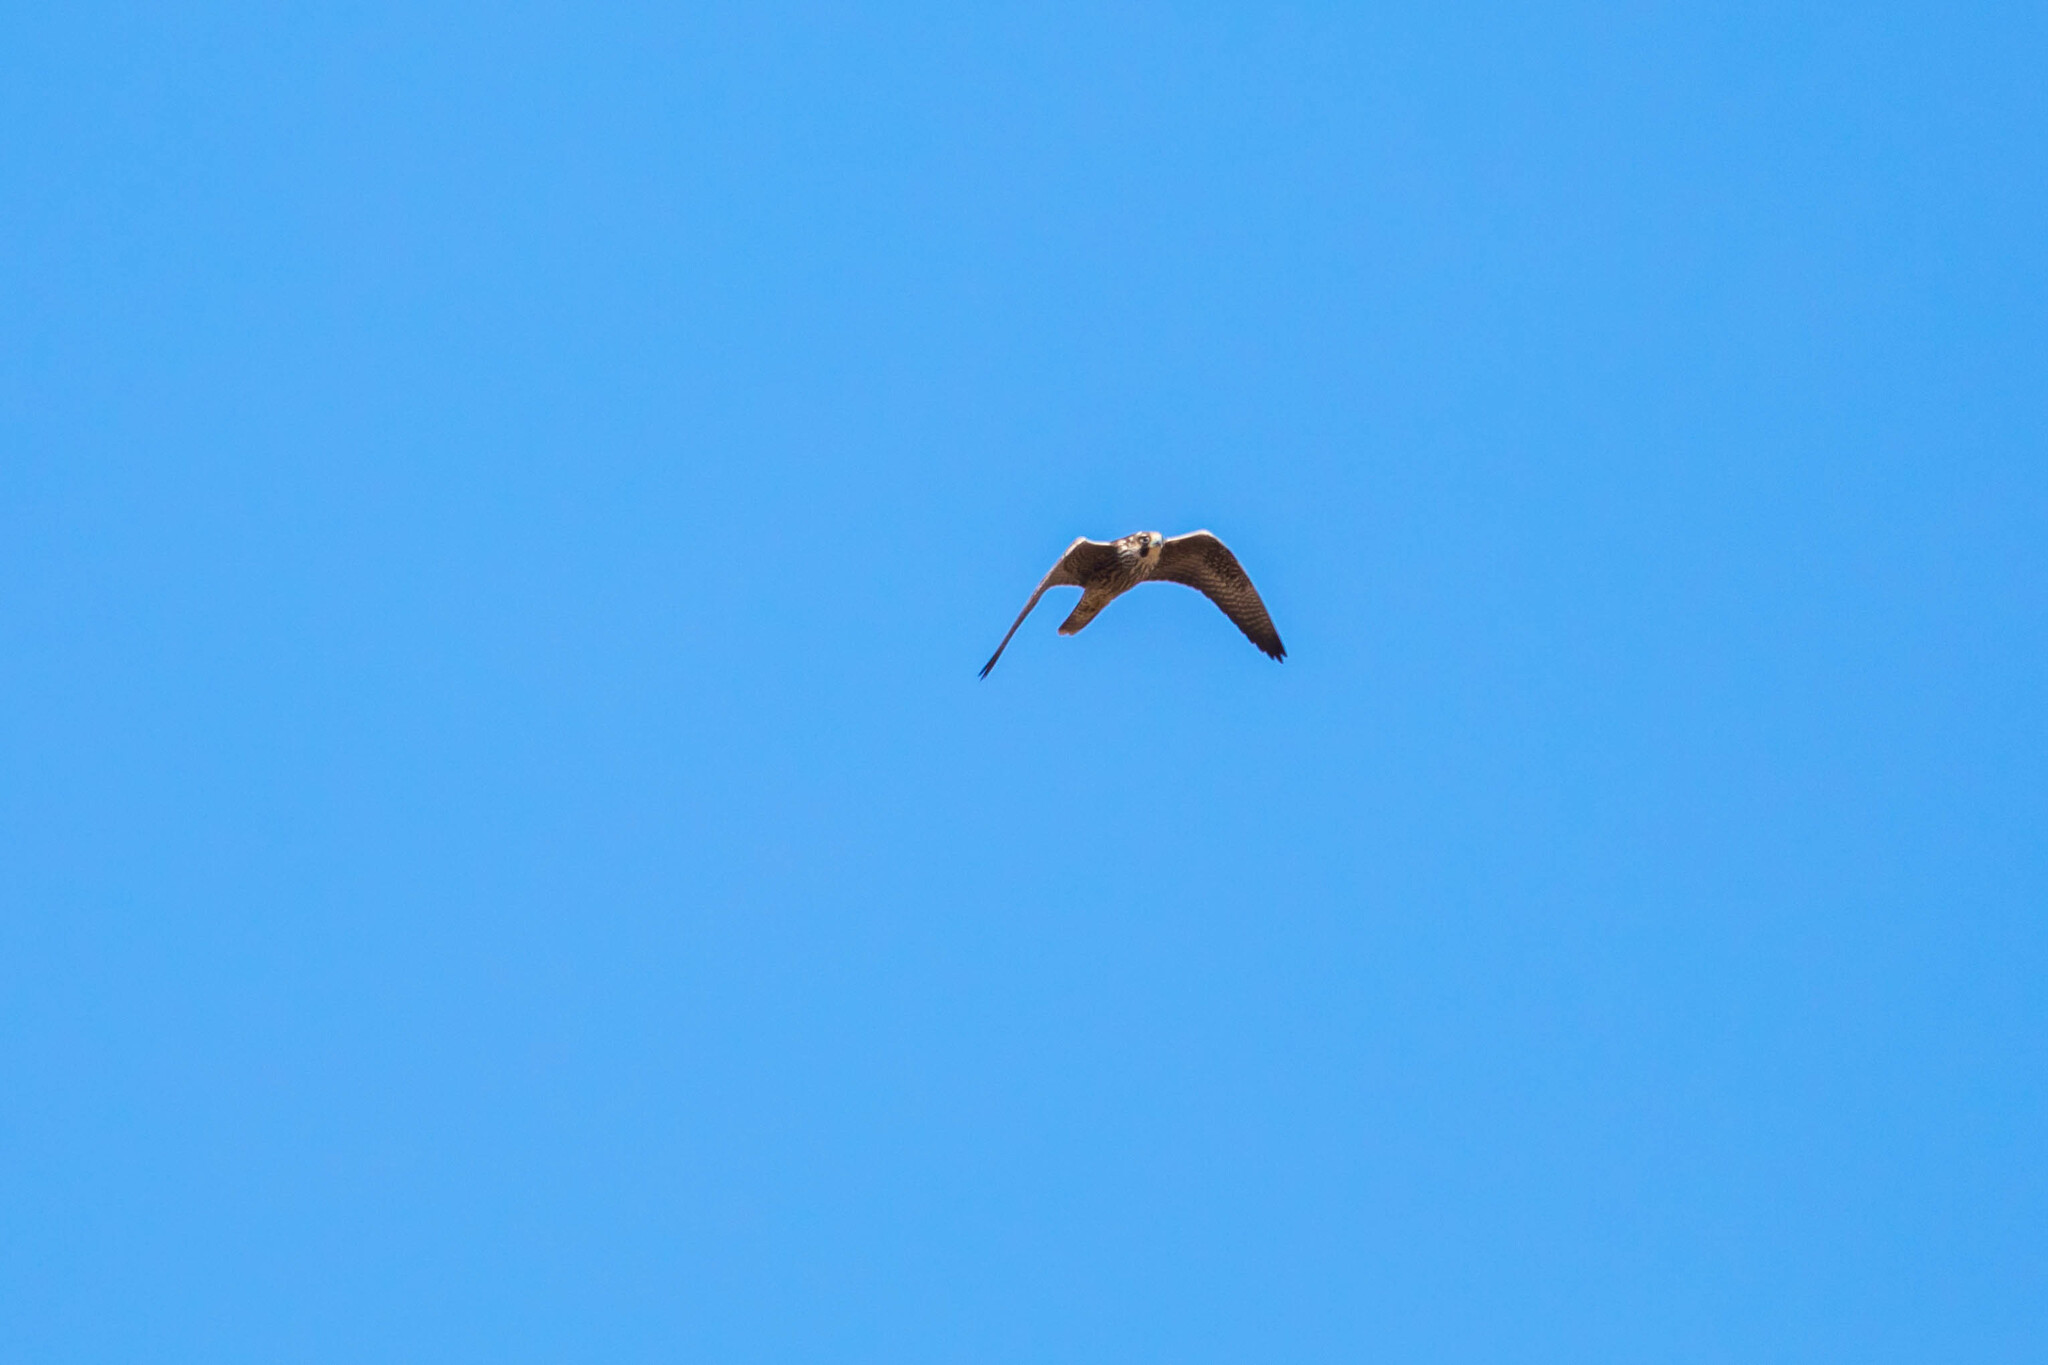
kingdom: Animalia
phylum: Chordata
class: Aves
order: Falconiformes
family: Falconidae
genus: Falco
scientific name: Falco peregrinus
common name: Peregrine falcon
